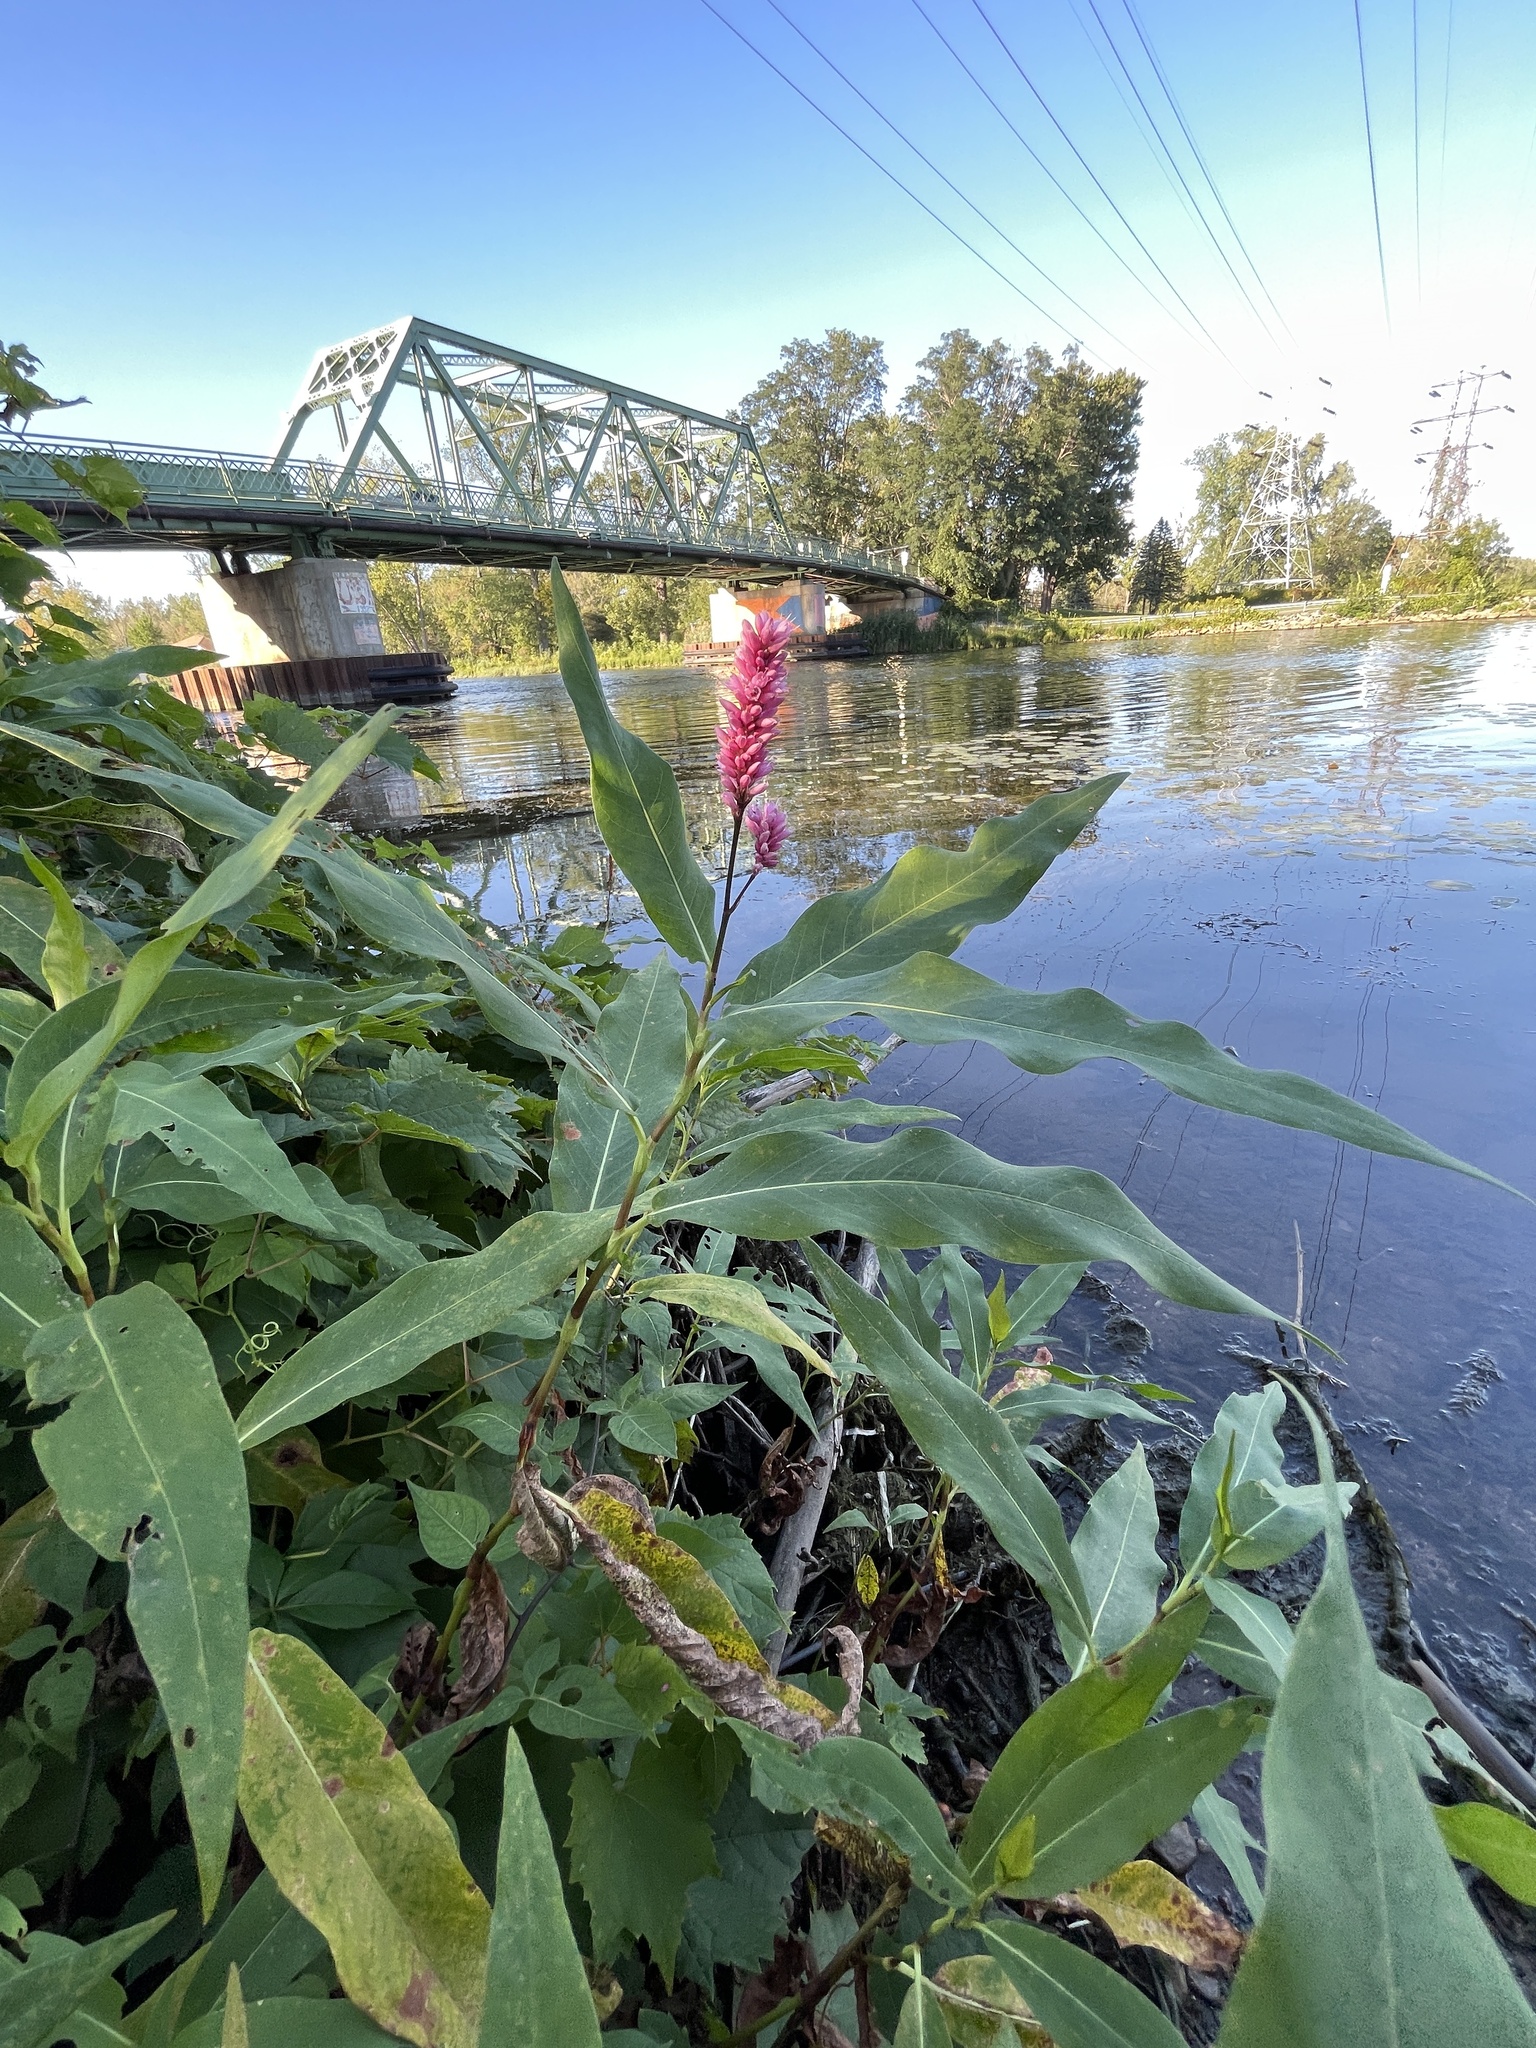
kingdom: Plantae
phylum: Tracheophyta
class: Magnoliopsida
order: Caryophyllales
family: Polygonaceae
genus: Persicaria
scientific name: Persicaria amphibia
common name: Amphibious bistort
